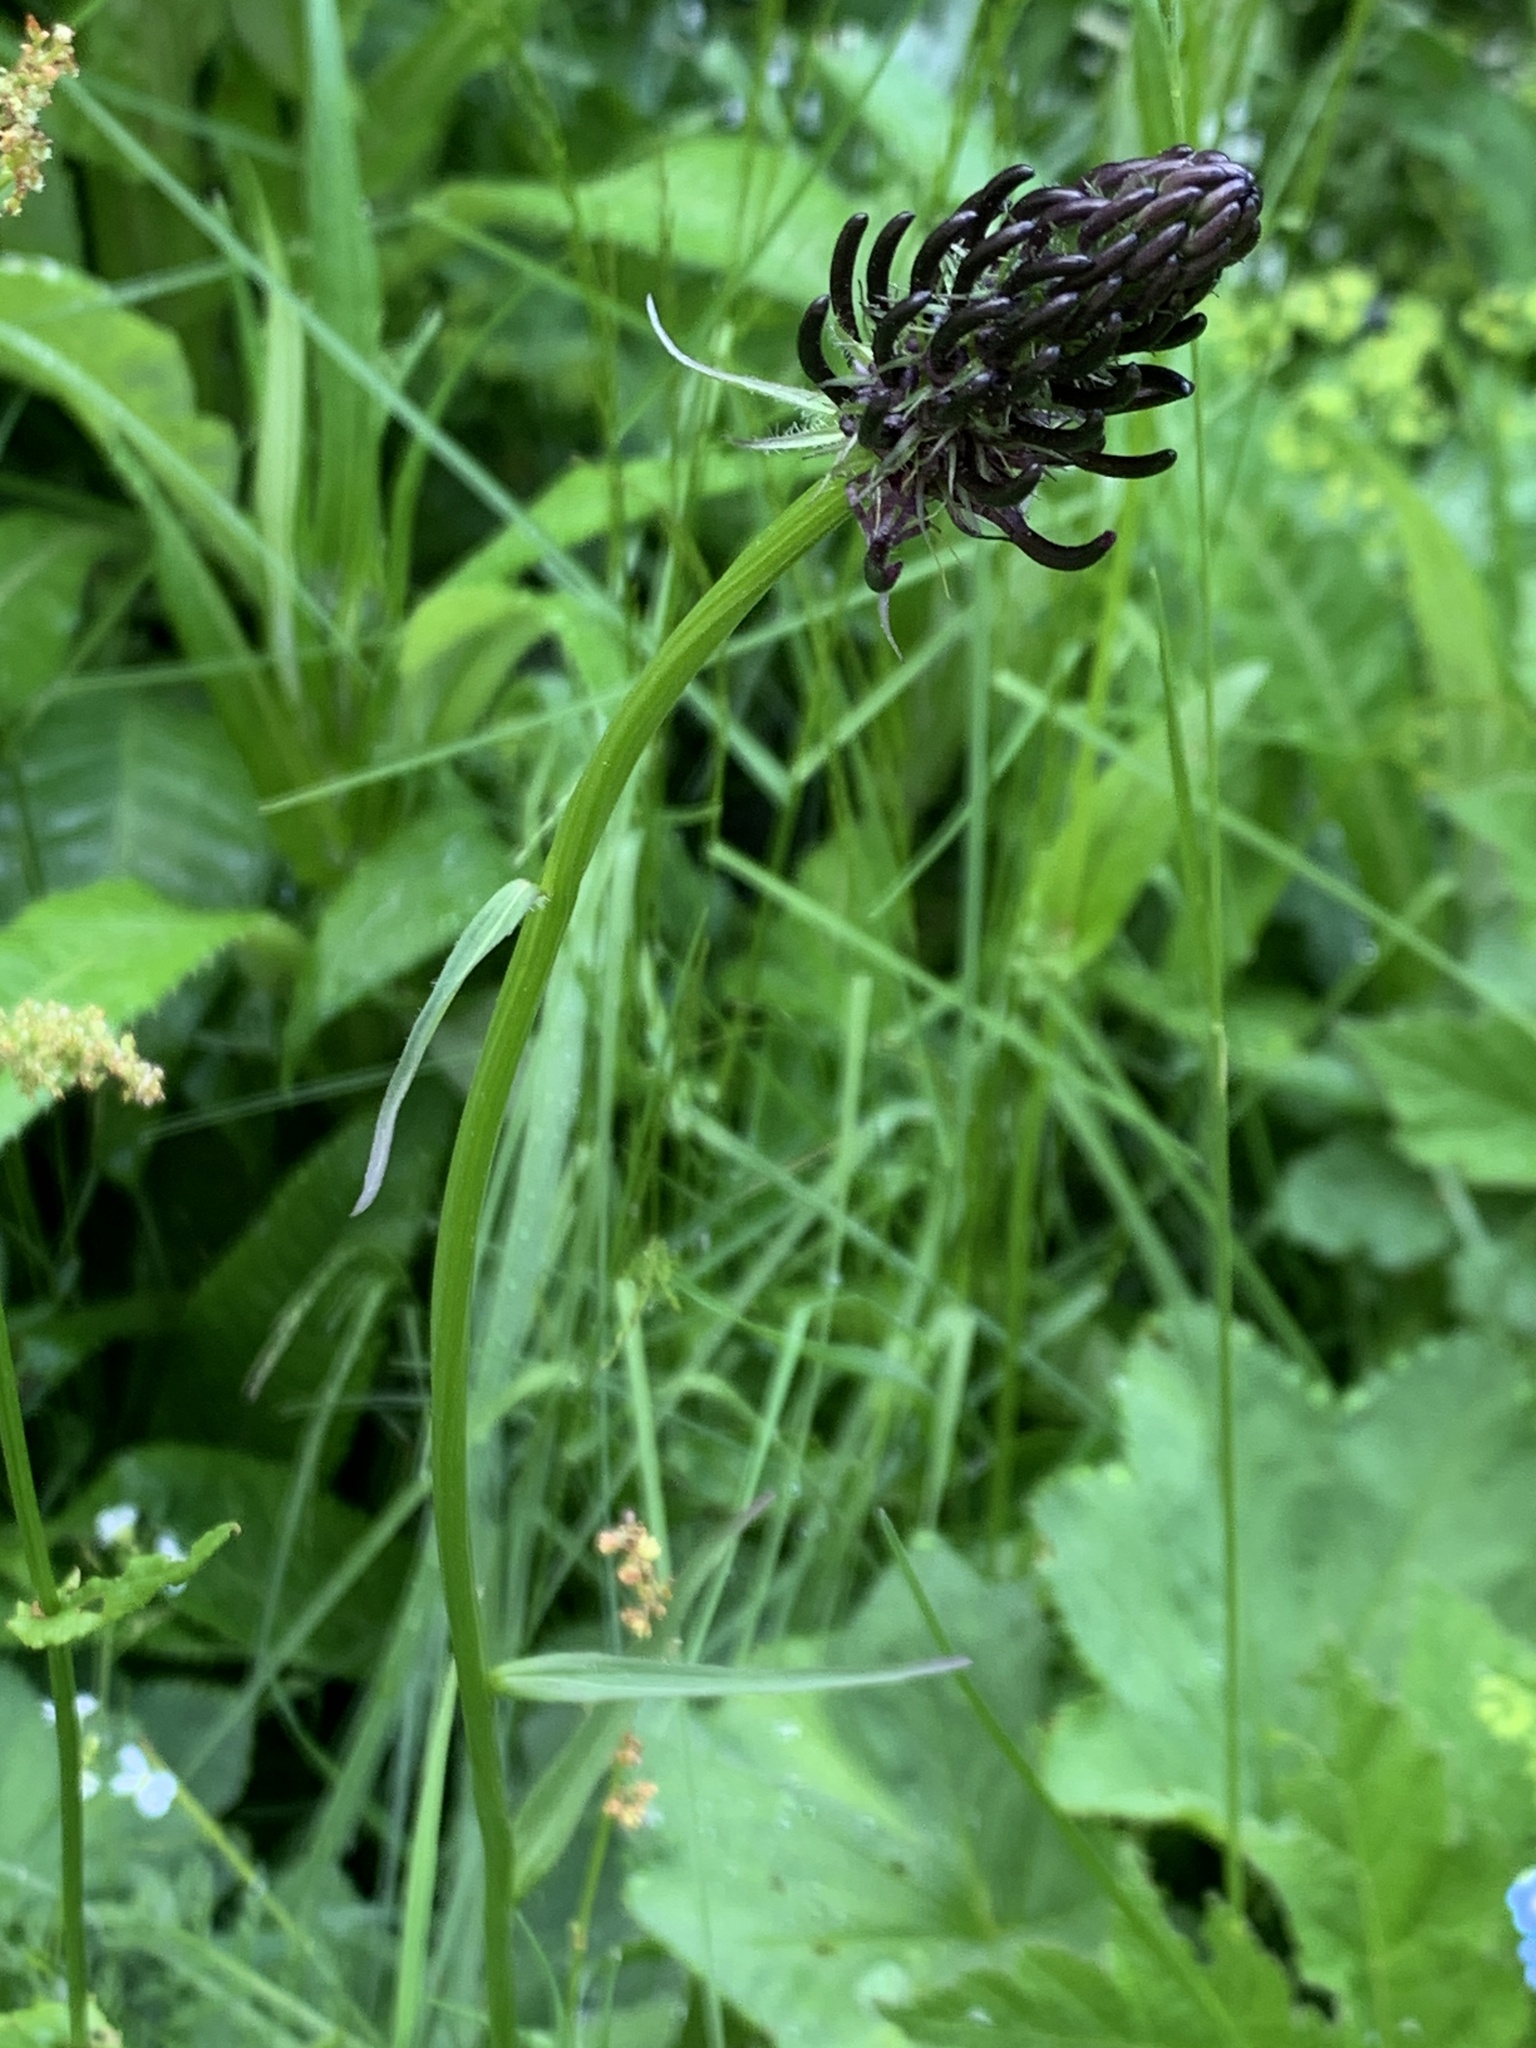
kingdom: Plantae
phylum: Tracheophyta
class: Magnoliopsida
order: Asterales
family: Campanulaceae
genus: Phyteuma
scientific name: Phyteuma nigrum
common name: Black rampion
